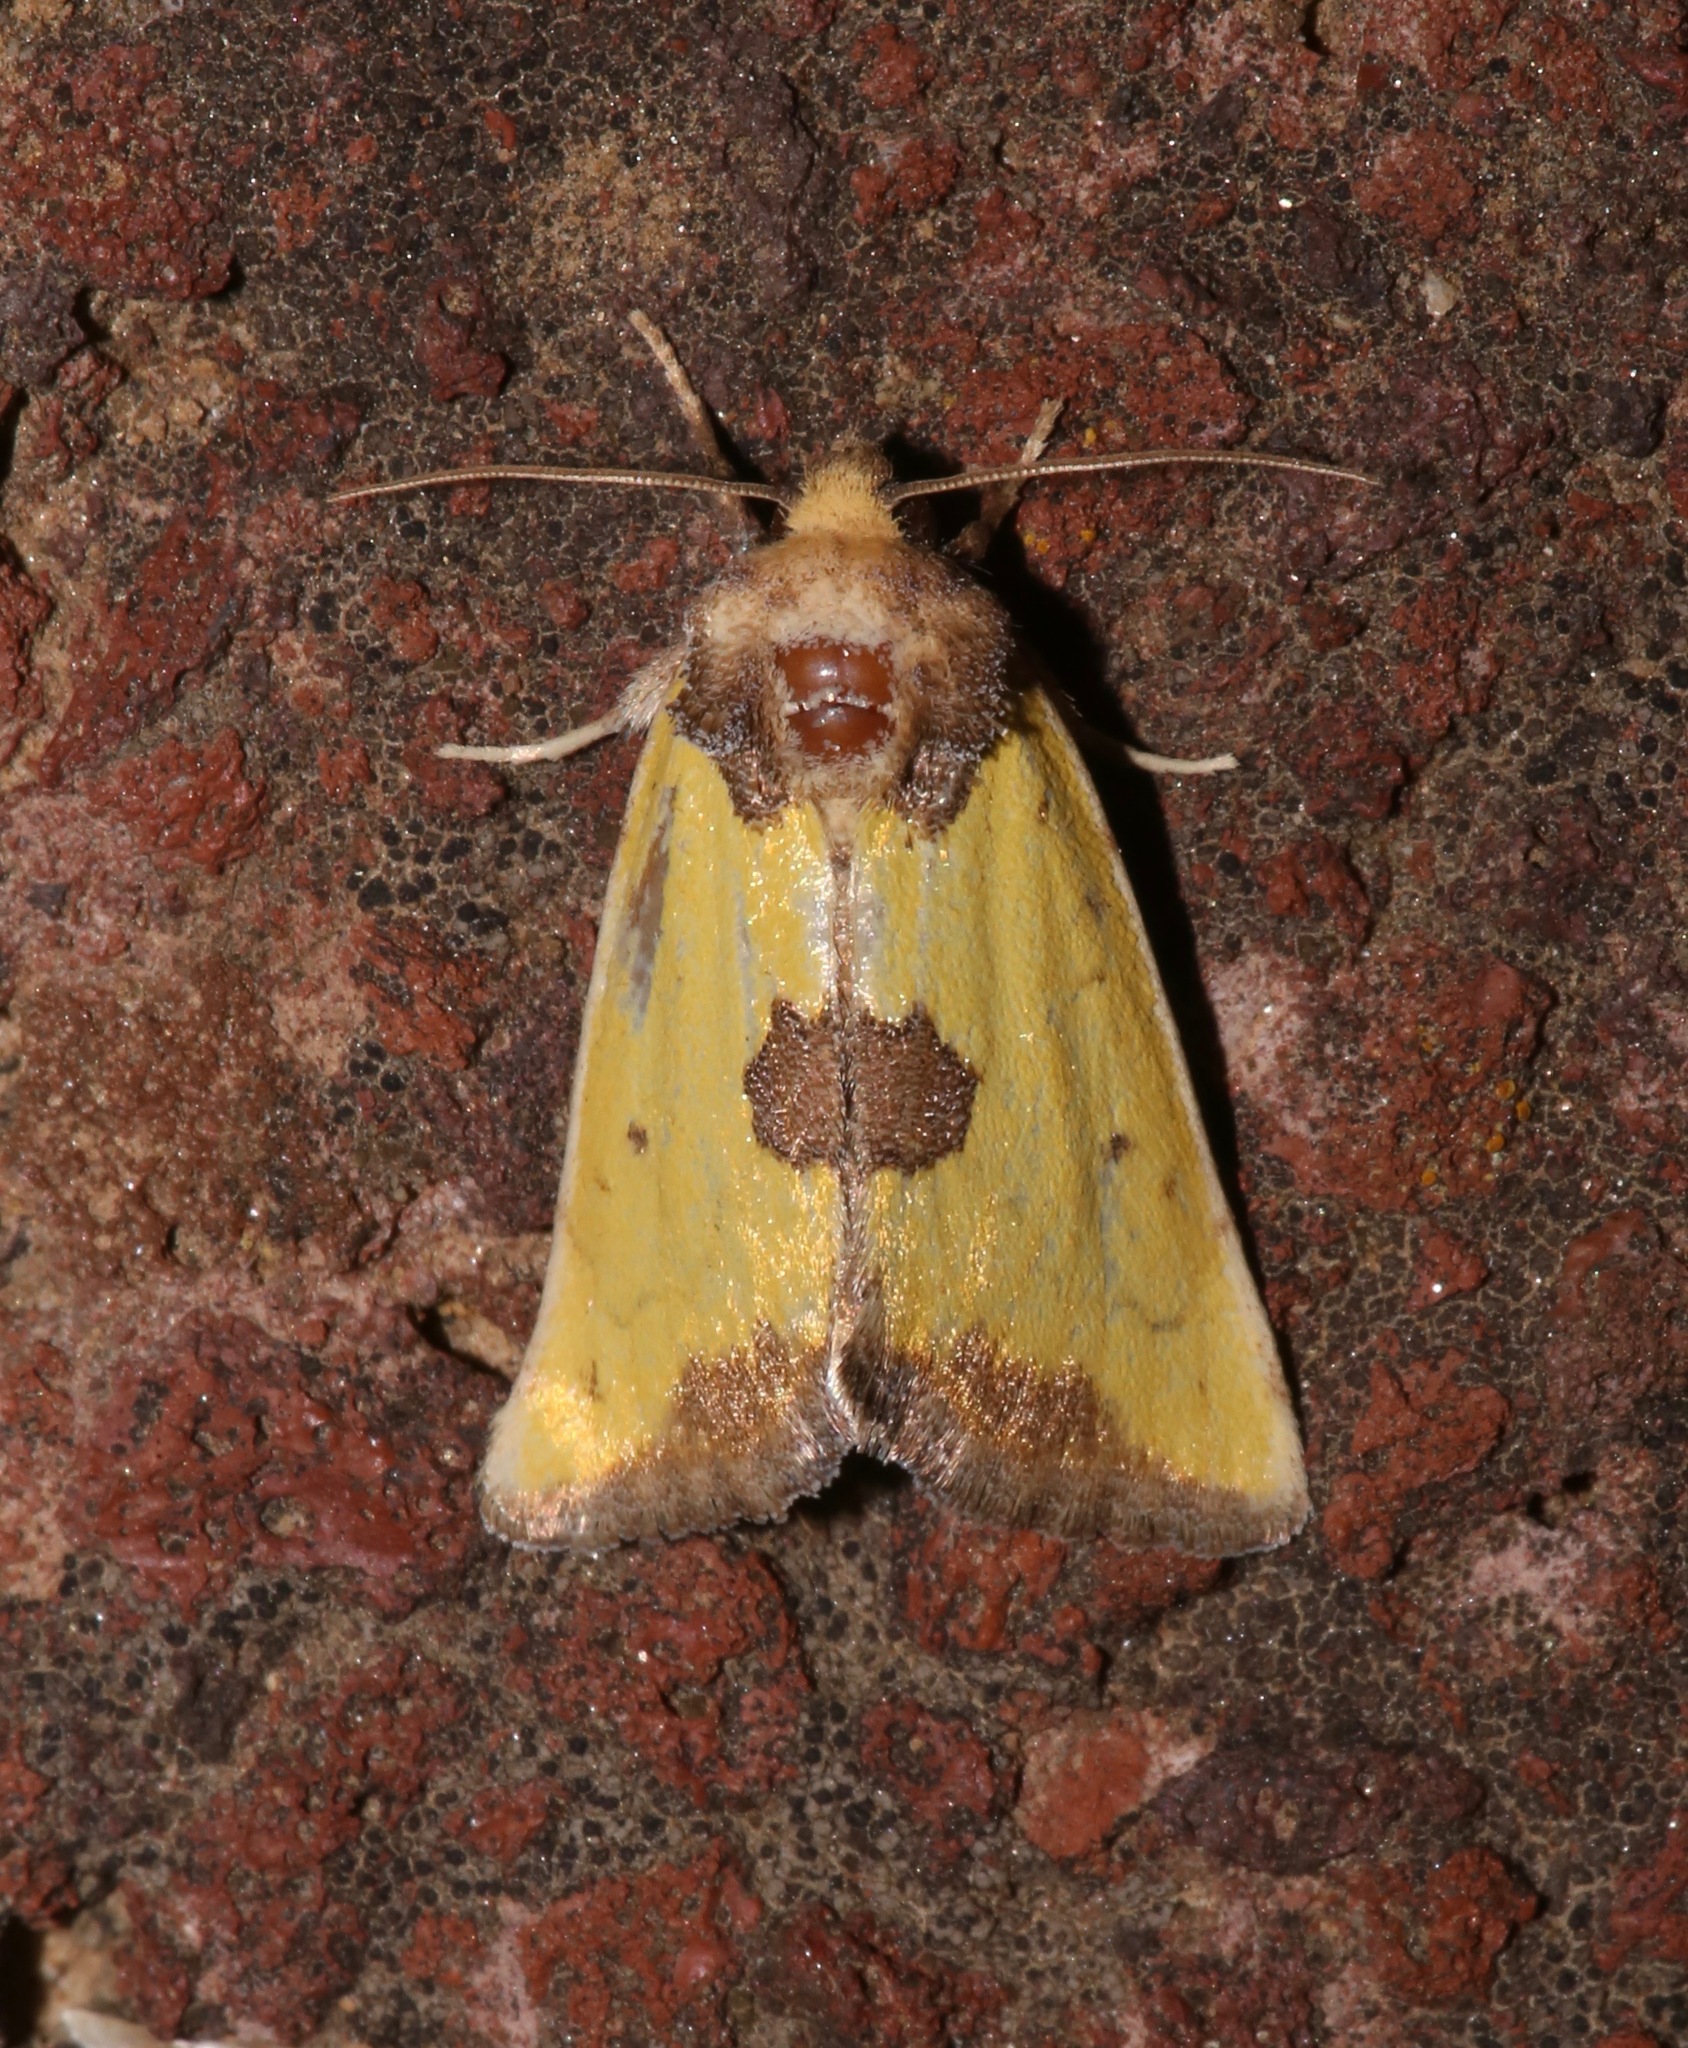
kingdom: Animalia
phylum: Arthropoda
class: Insecta
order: Lepidoptera
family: Noctuidae
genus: Stiria
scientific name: Stiria rugifrons
